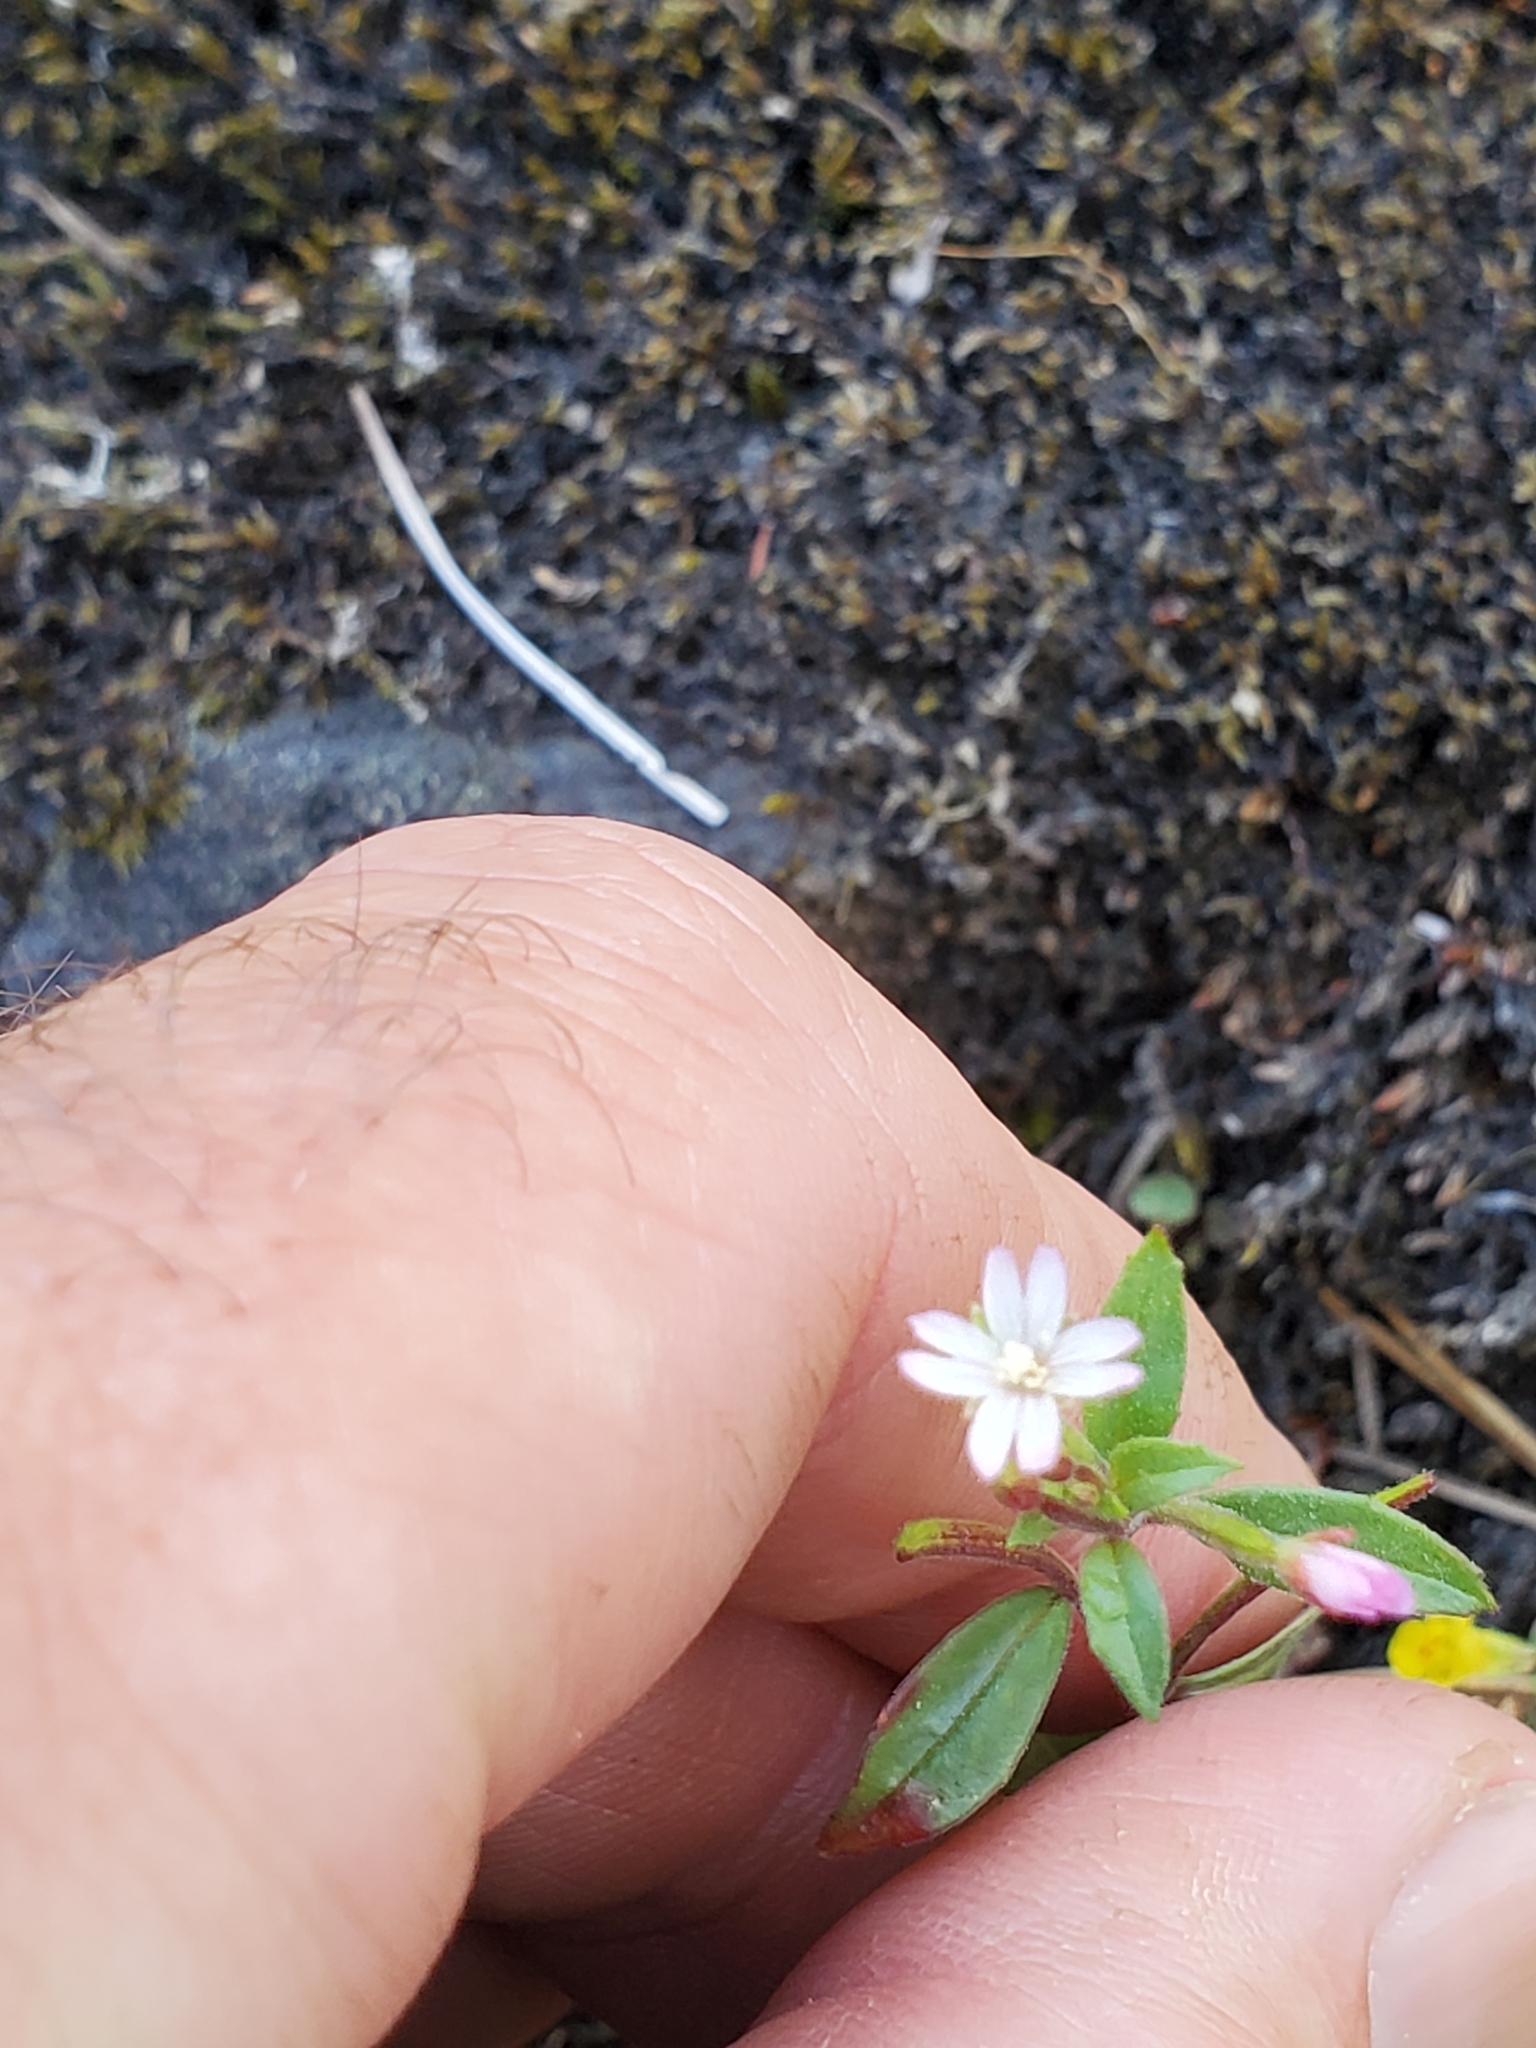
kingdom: Plantae
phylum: Tracheophyta
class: Magnoliopsida
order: Myrtales
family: Onagraceae
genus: Epilobium
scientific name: Epilobium ciliatum
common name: American willowherb
